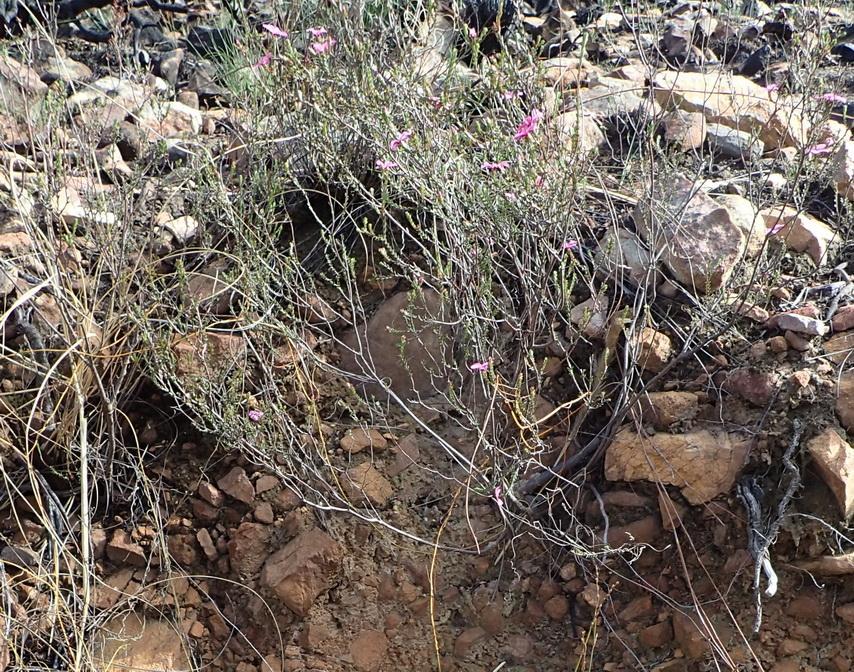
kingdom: Plantae
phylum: Tracheophyta
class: Magnoliopsida
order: Sapindales
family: Rutaceae
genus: Acmadenia
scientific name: Acmadenia sheilae
